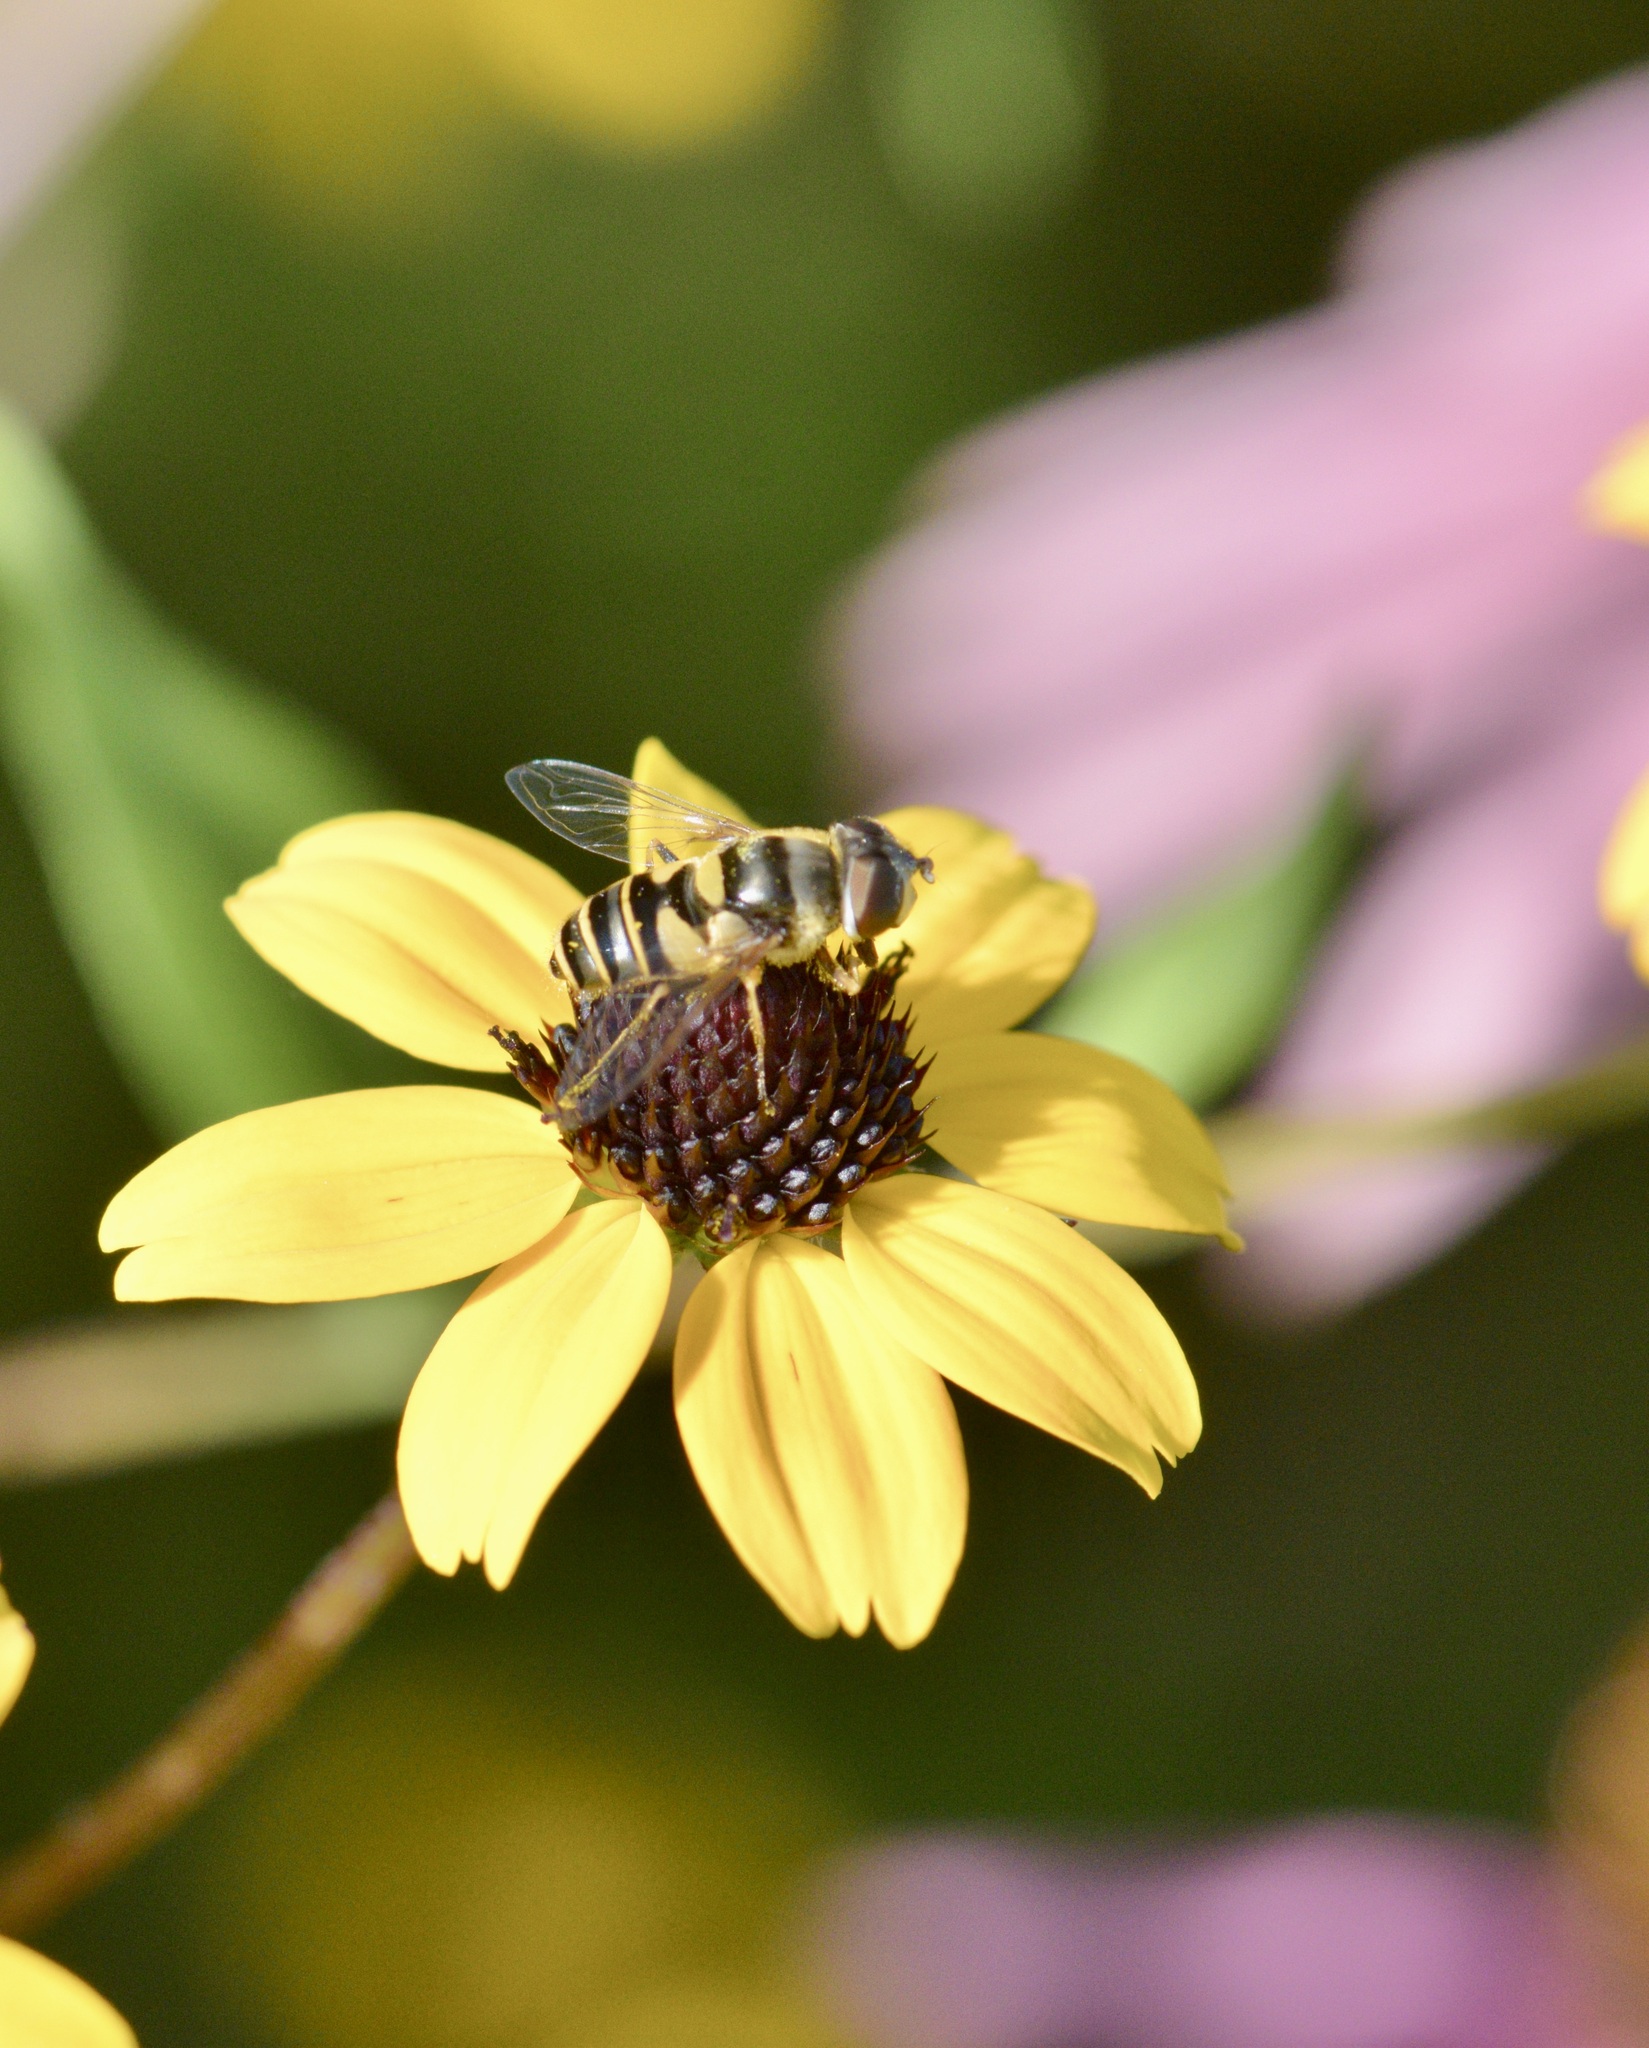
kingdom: Animalia
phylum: Arthropoda
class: Insecta
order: Diptera
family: Syrphidae
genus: Eristalis
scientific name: Eristalis transversa
